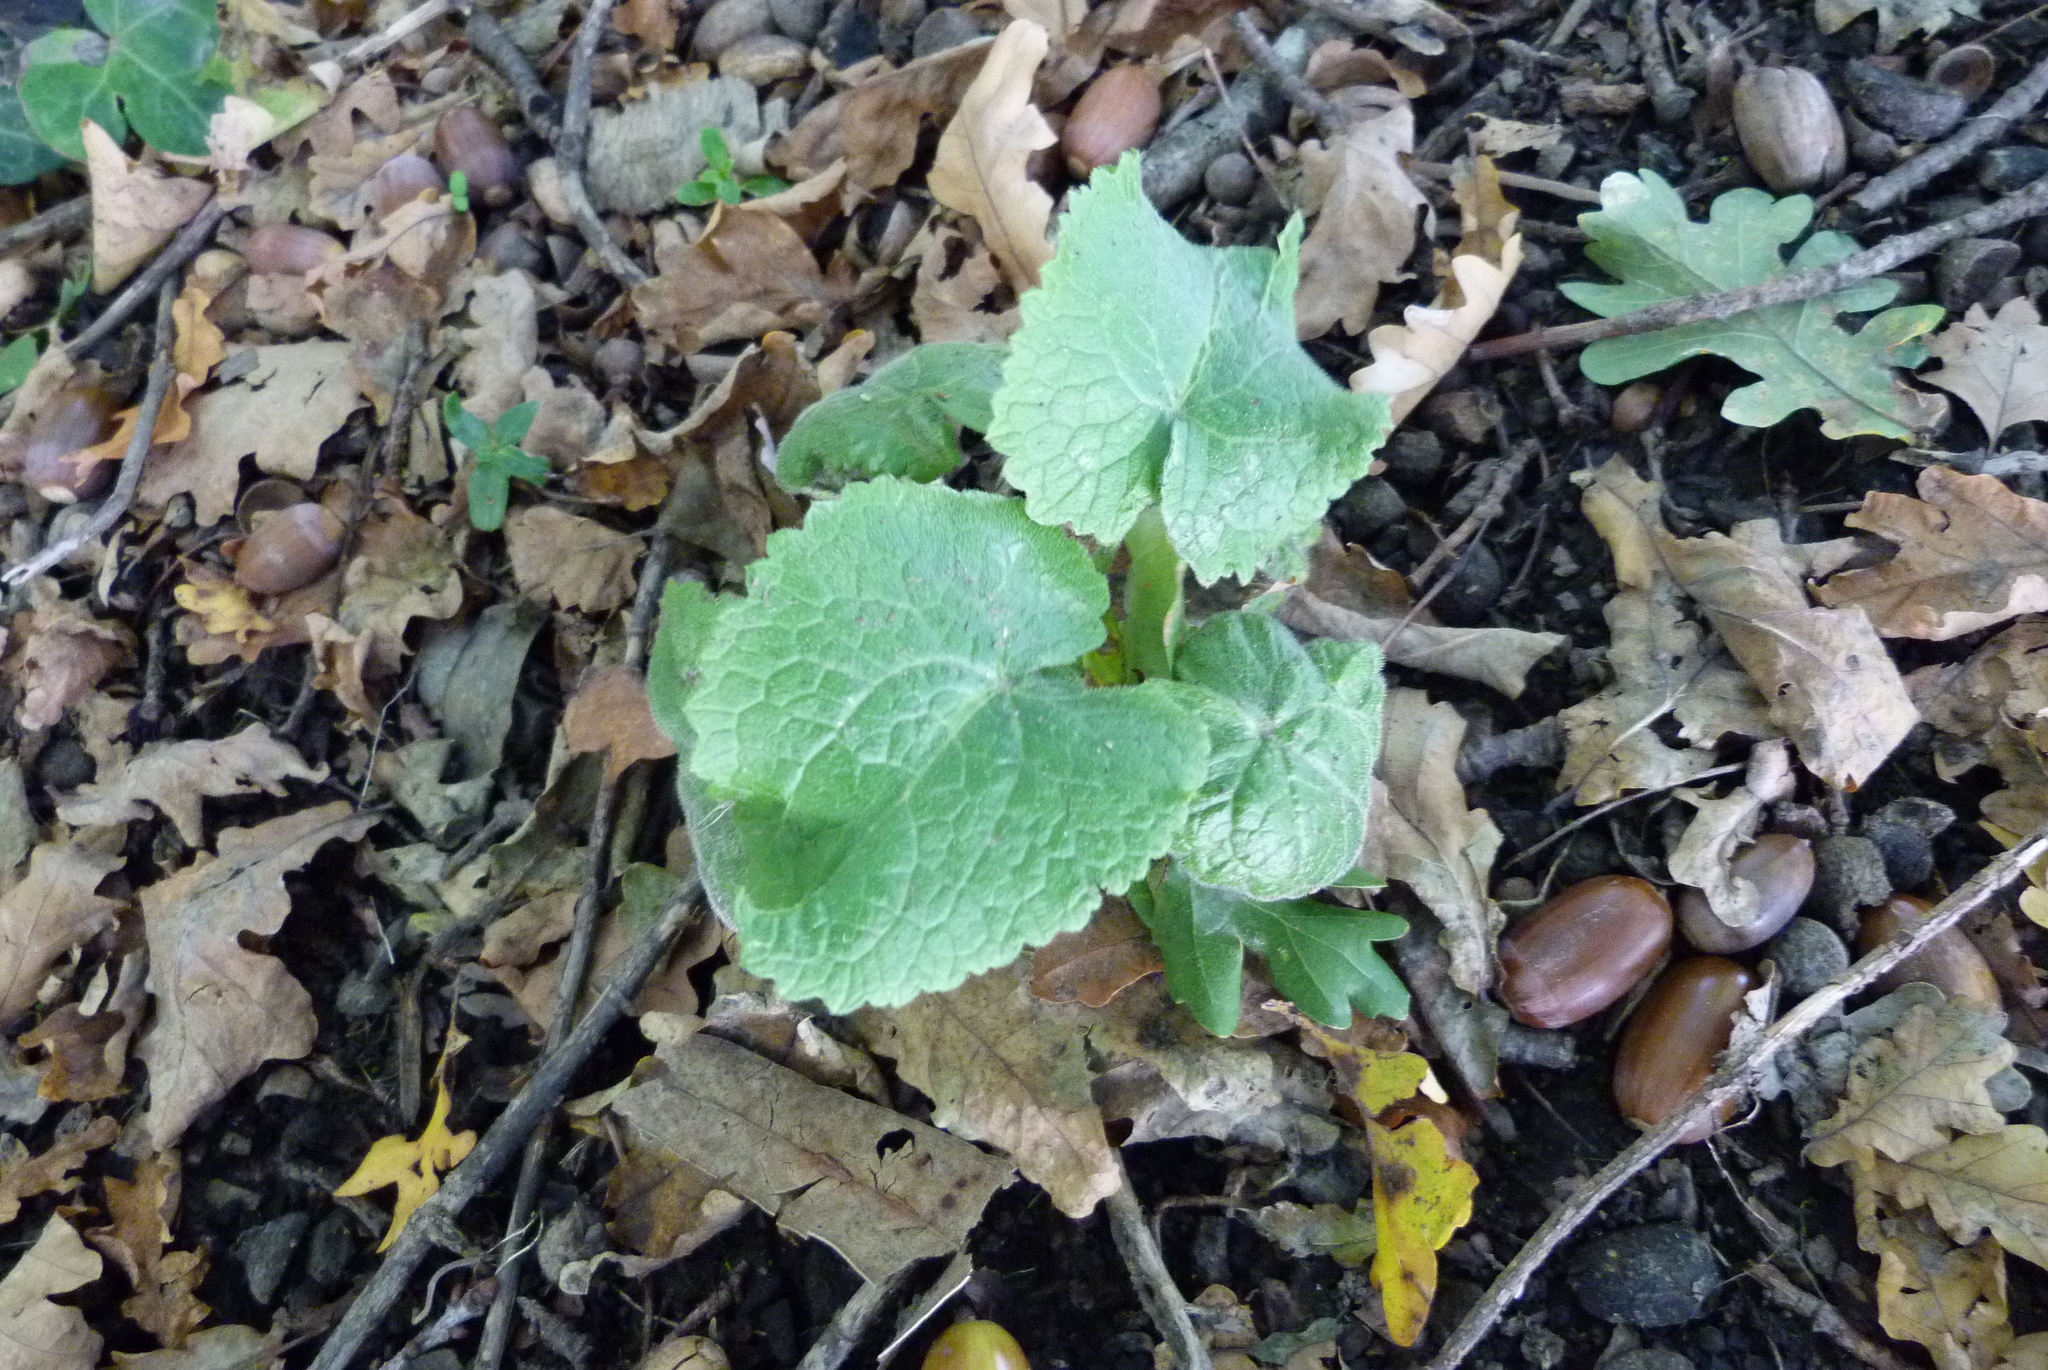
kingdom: Plantae
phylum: Tracheophyta
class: Magnoliopsida
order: Brassicales
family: Brassicaceae
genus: Lunaria
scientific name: Lunaria annua
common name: Honesty
